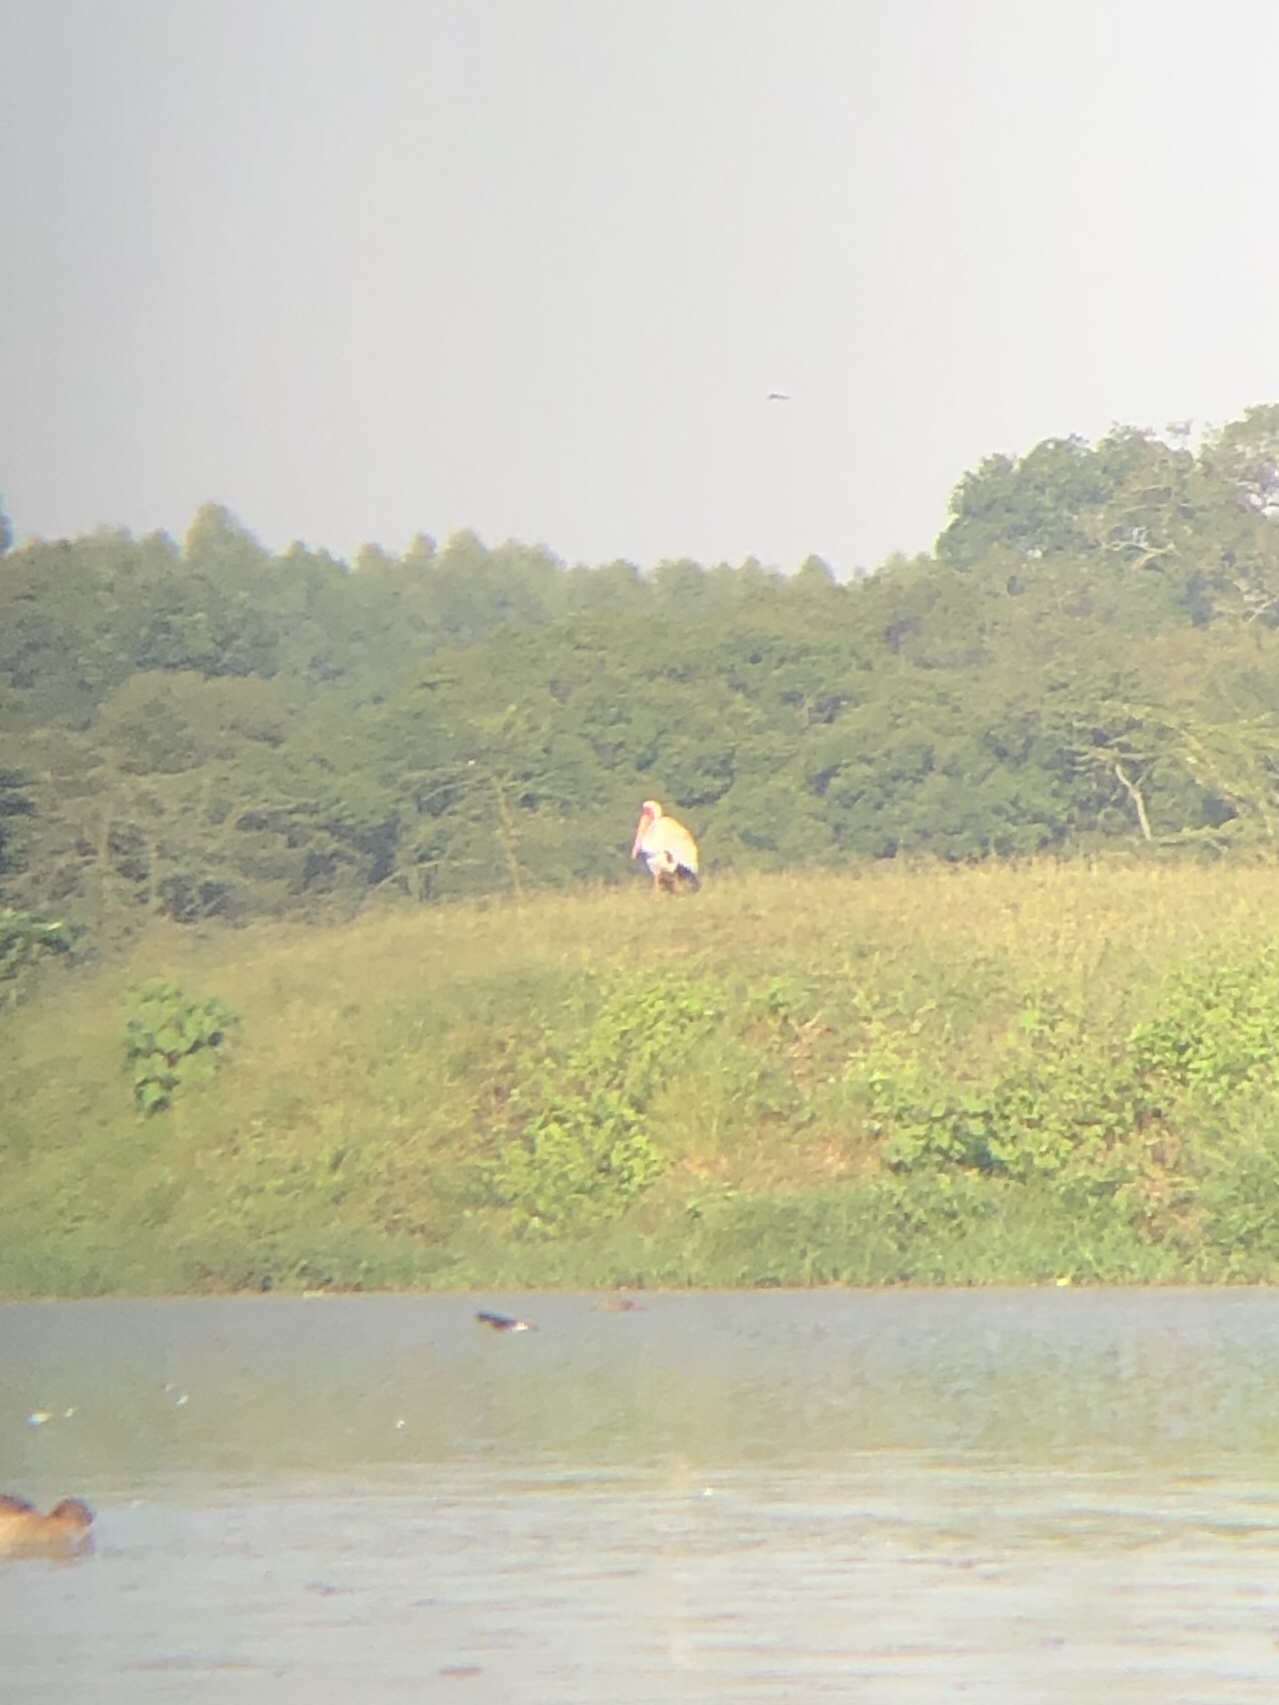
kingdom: Animalia
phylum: Chordata
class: Aves
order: Ciconiiformes
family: Ciconiidae
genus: Mycteria
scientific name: Mycteria ibis
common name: Yellow-billed stork
